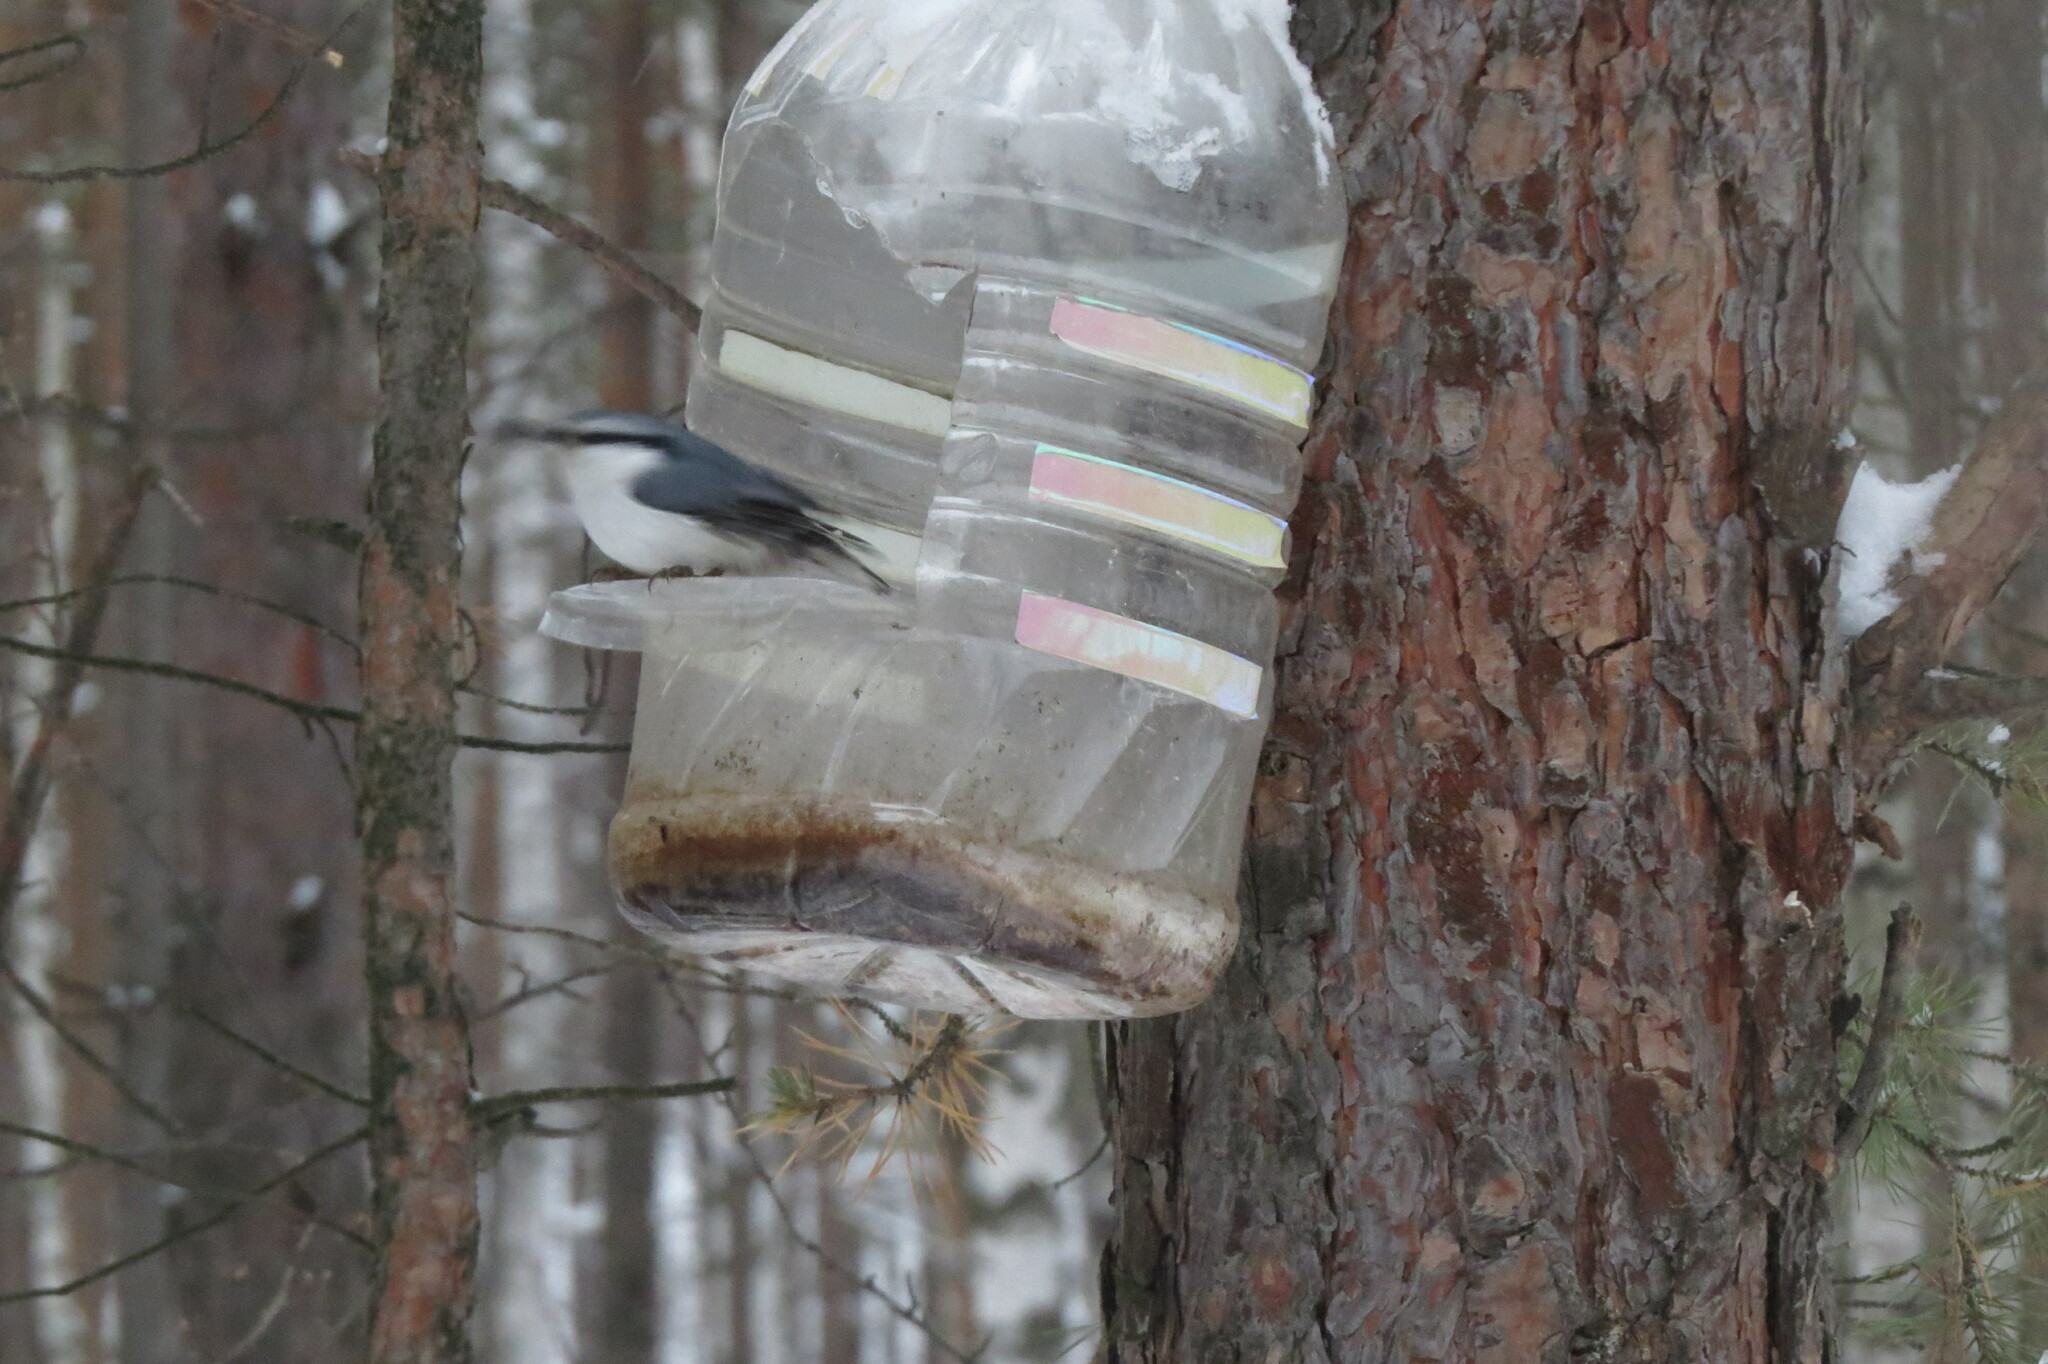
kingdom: Animalia
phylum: Chordata
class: Aves
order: Passeriformes
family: Sittidae
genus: Sitta
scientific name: Sitta europaea
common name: Eurasian nuthatch
